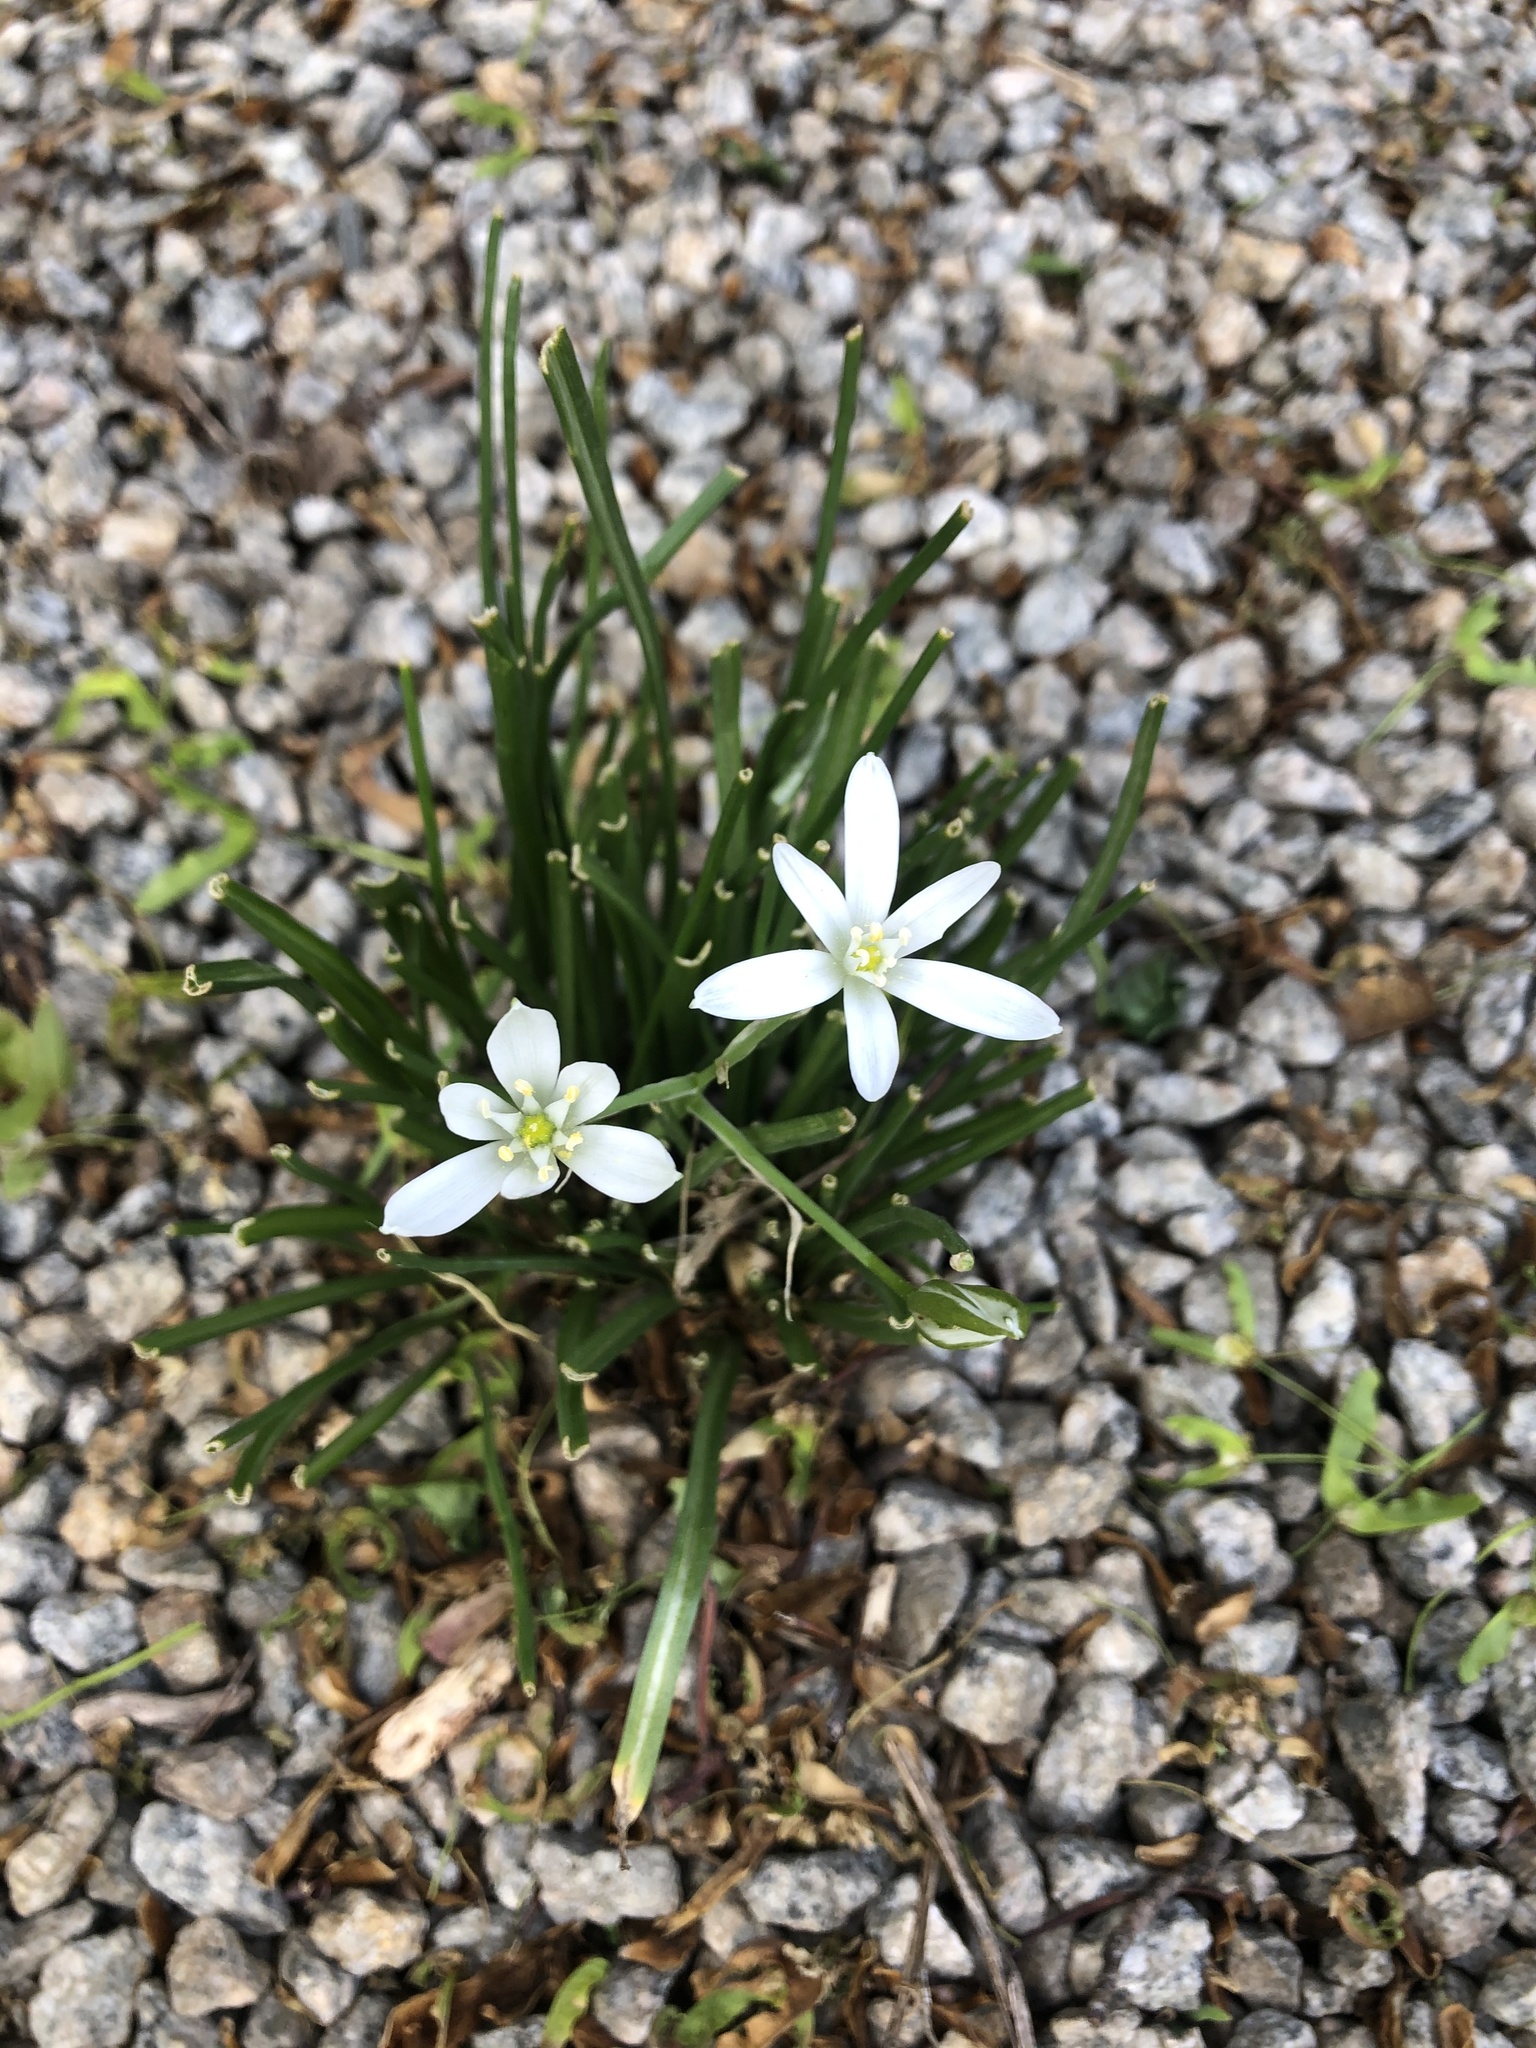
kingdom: Plantae
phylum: Tracheophyta
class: Liliopsida
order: Asparagales
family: Asparagaceae
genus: Ornithogalum
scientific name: Ornithogalum umbellatum
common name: Garden star-of-bethlehem
